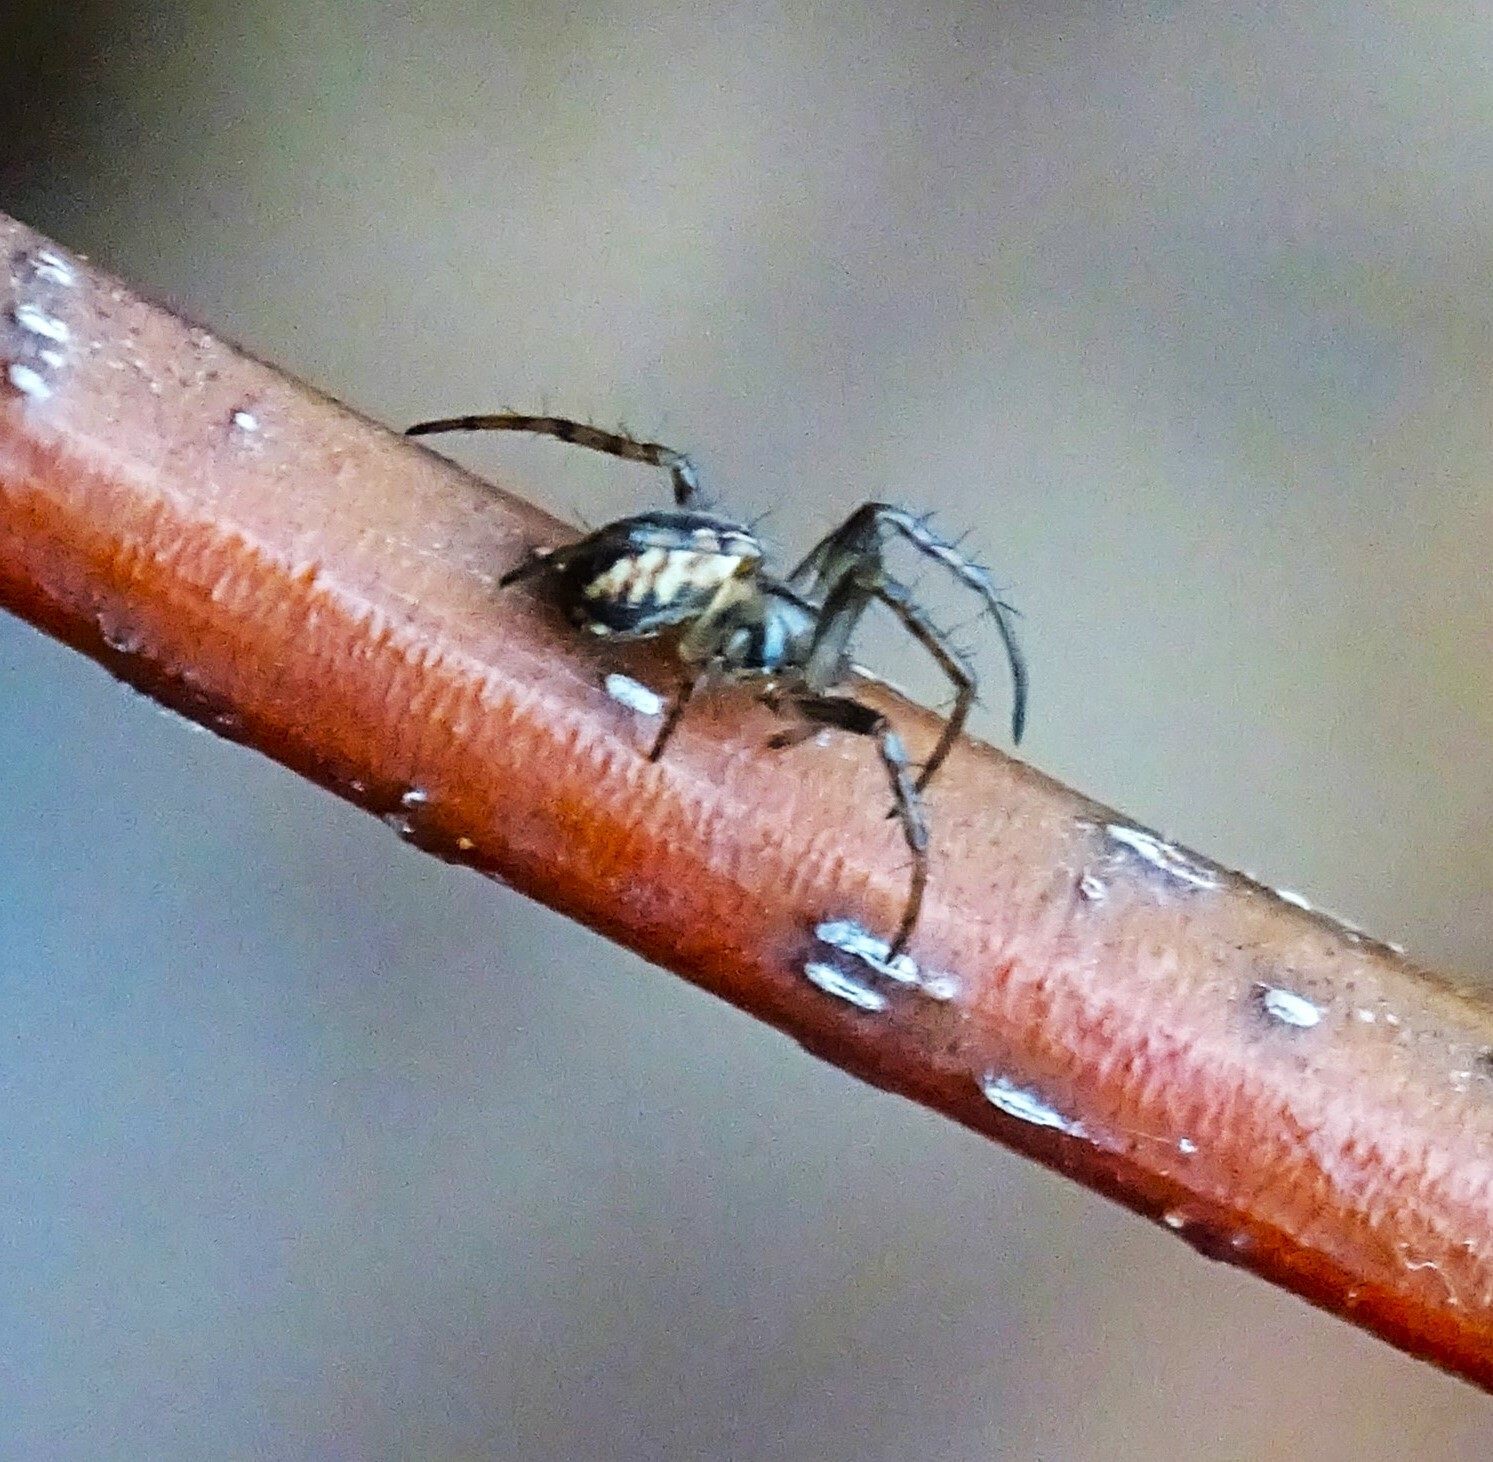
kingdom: Animalia
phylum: Arthropoda
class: Arachnida
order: Araneae
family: Araneidae
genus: Mangora
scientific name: Mangora placida
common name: Tuft-legged orbweaver
